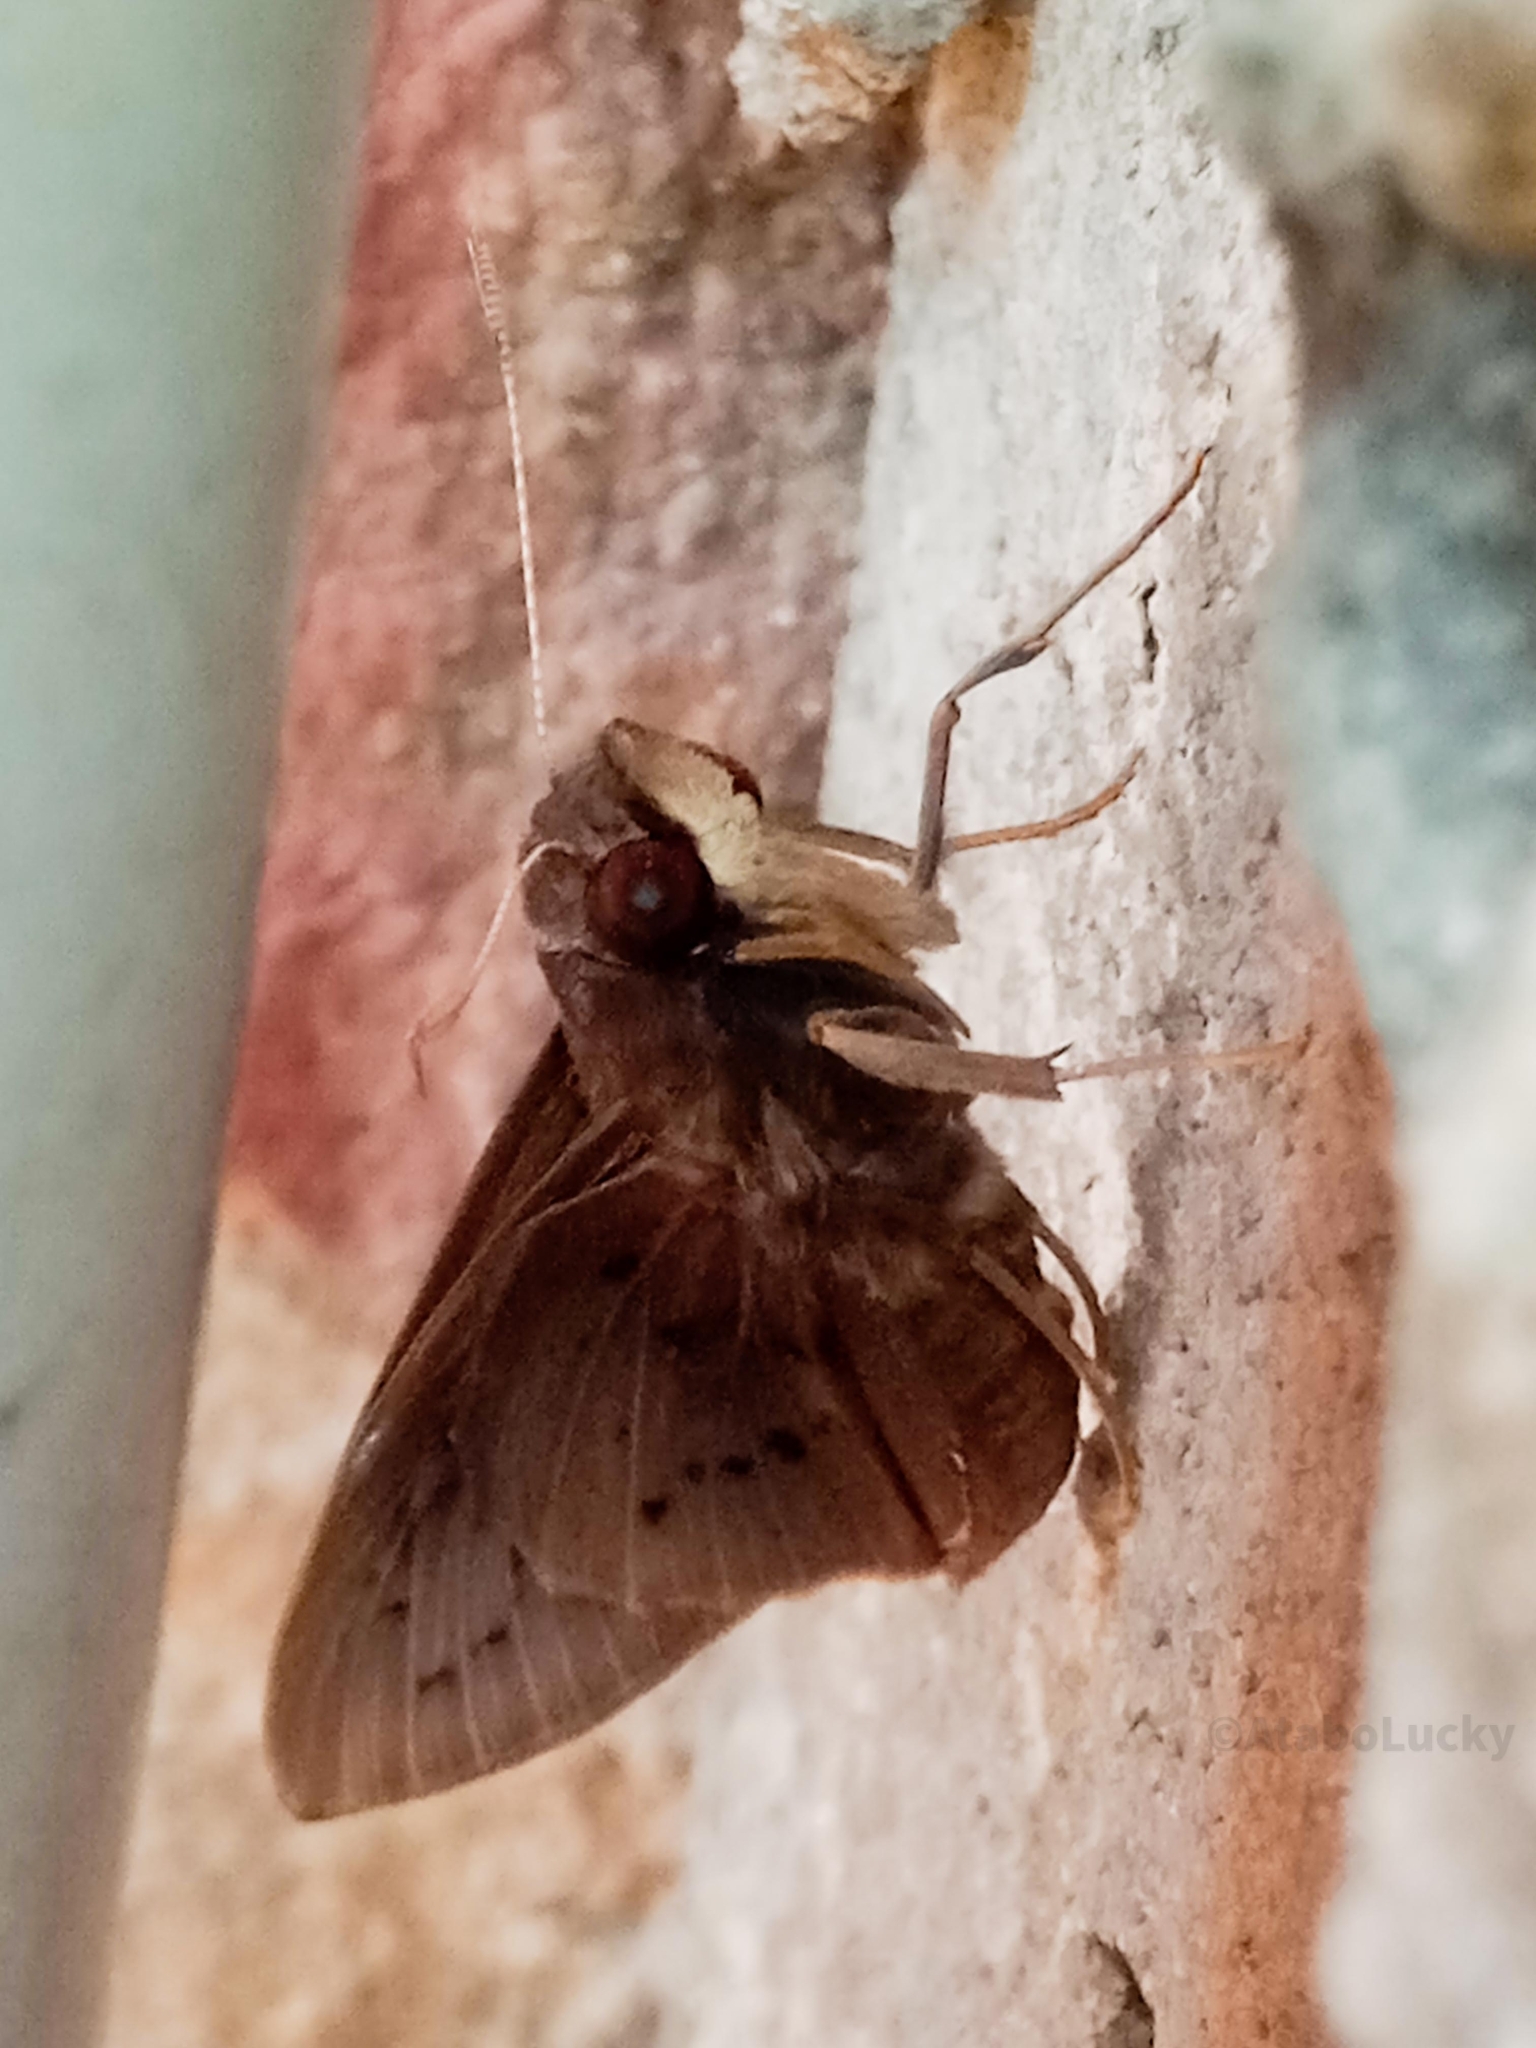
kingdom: Animalia
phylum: Arthropoda
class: Insecta
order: Lepidoptera
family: Hesperiidae
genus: Zophopetes
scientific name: Zophopetes cerymica
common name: Common palm nightfighter
